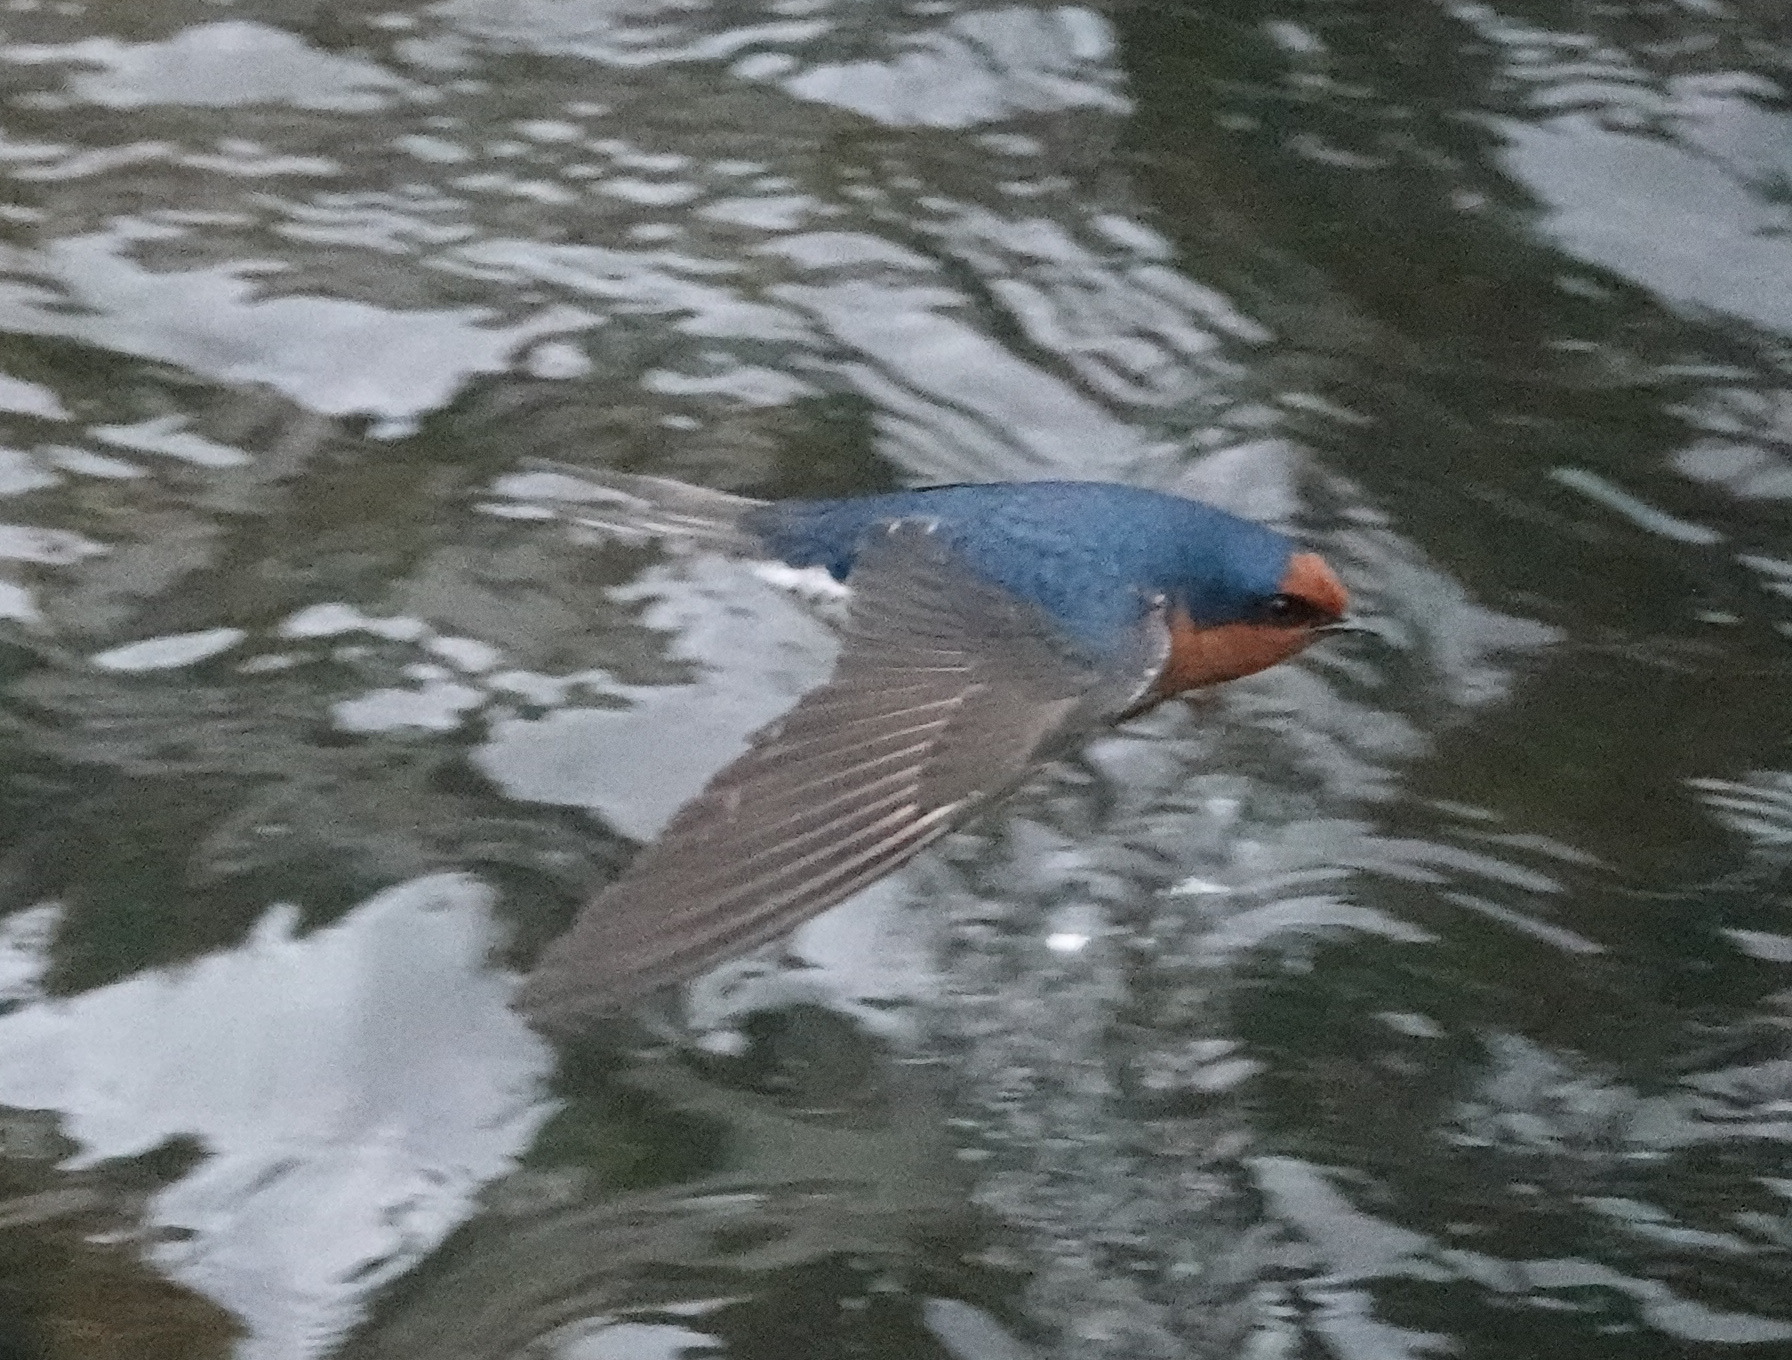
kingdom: Animalia
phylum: Chordata
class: Aves
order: Passeriformes
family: Hirundinidae
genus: Hirundo
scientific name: Hirundo neoxena
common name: Welcome swallow
